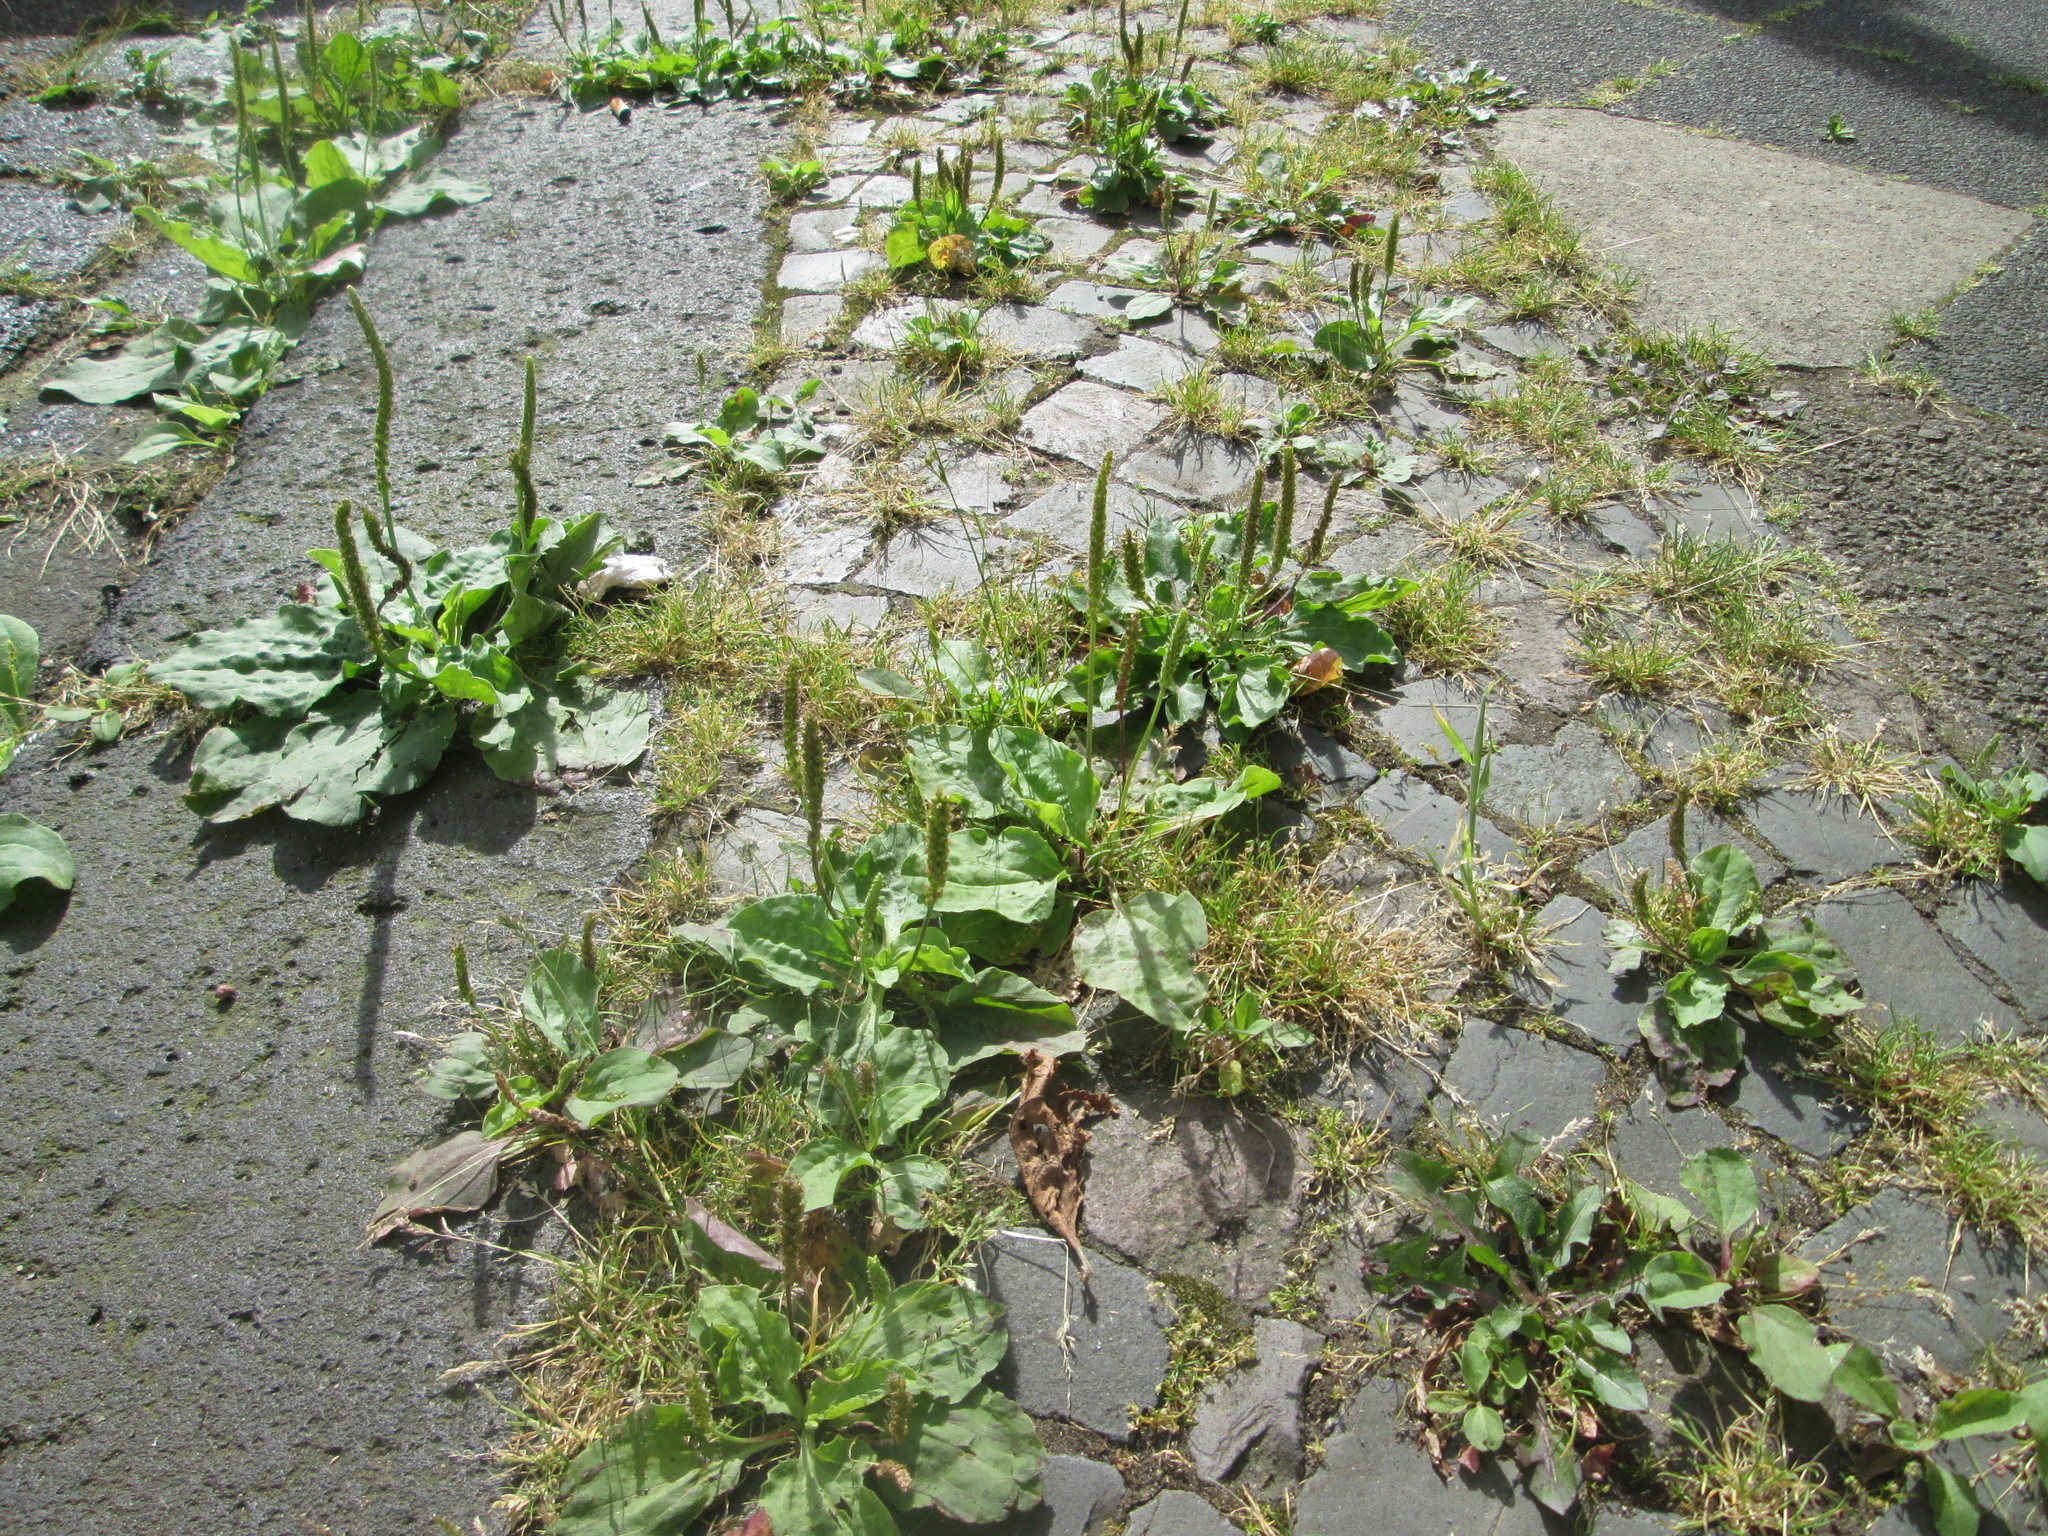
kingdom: Plantae
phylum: Tracheophyta
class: Magnoliopsida
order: Lamiales
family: Plantaginaceae
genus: Plantago
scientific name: Plantago major
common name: Common plantain
